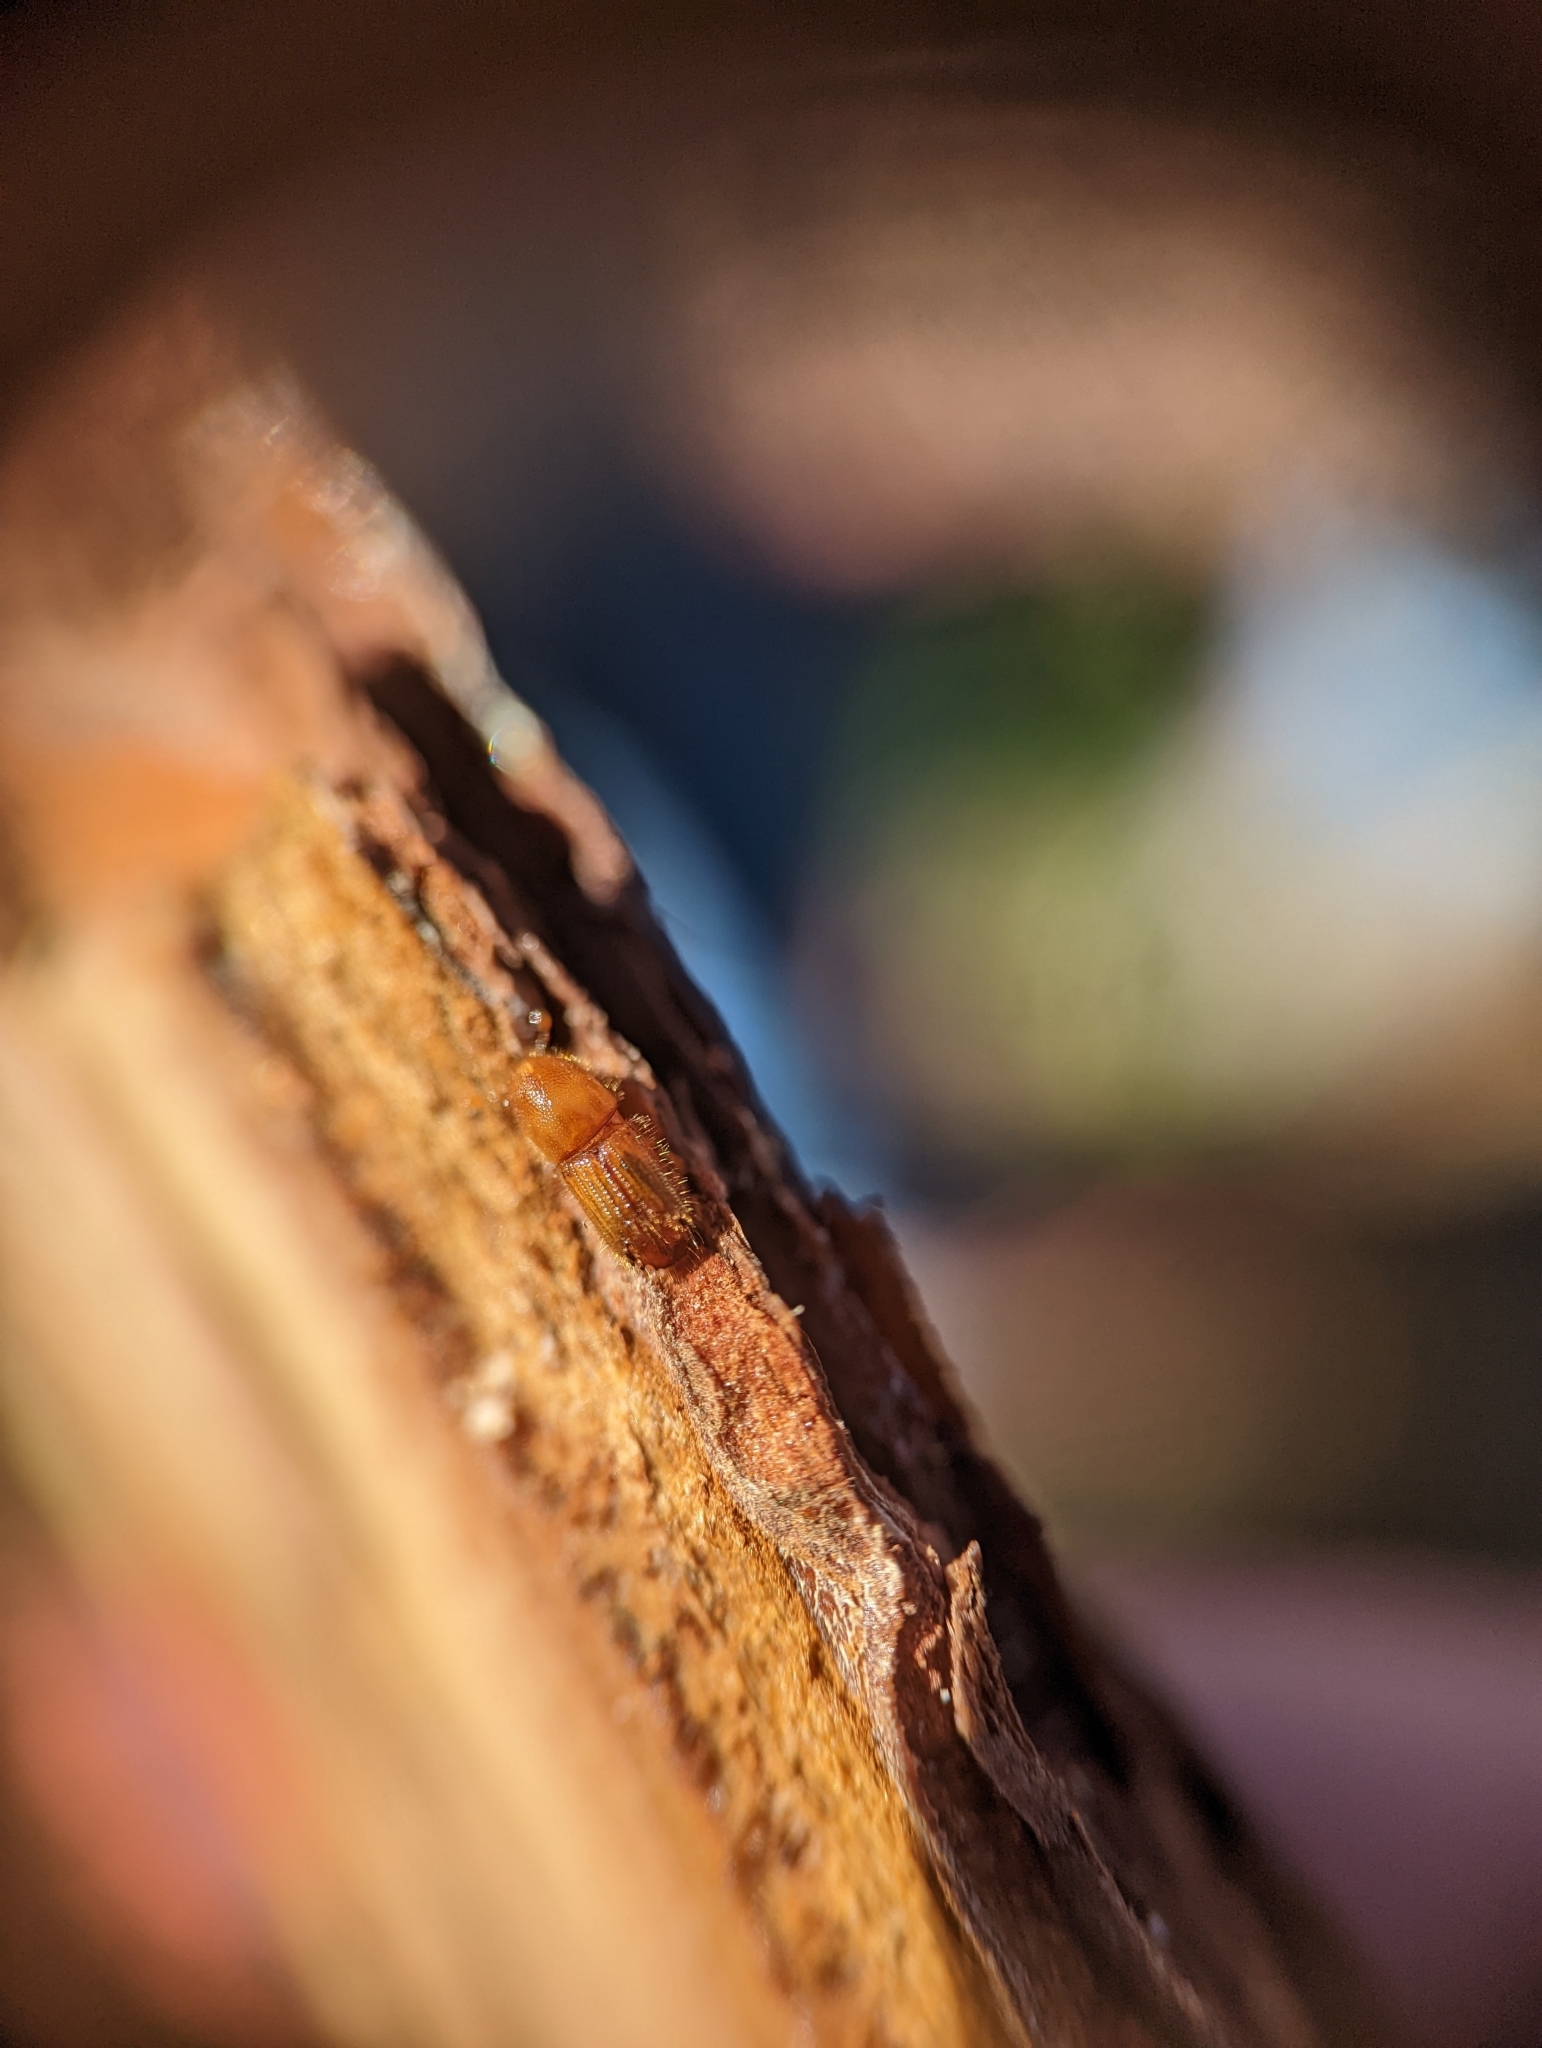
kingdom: Animalia
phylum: Arthropoda
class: Insecta
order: Coleoptera
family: Curculionidae
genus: Ips
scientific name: Ips calligraphus
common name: Coarsewriting engraver
